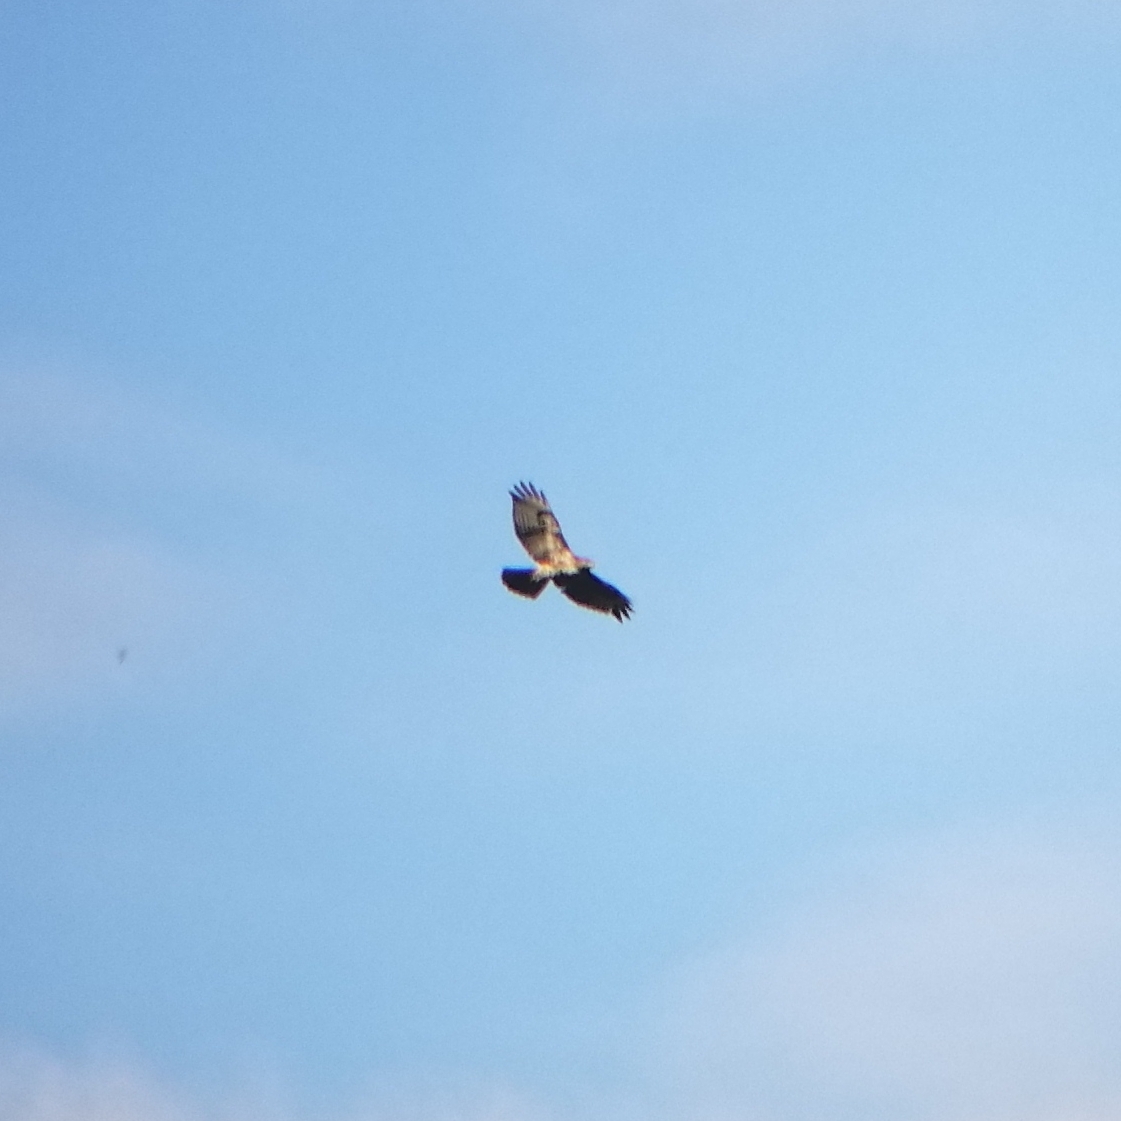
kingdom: Animalia
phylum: Chordata
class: Aves
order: Accipitriformes
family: Accipitridae
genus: Buteo
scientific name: Buteo jamaicensis
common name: Red-tailed hawk
